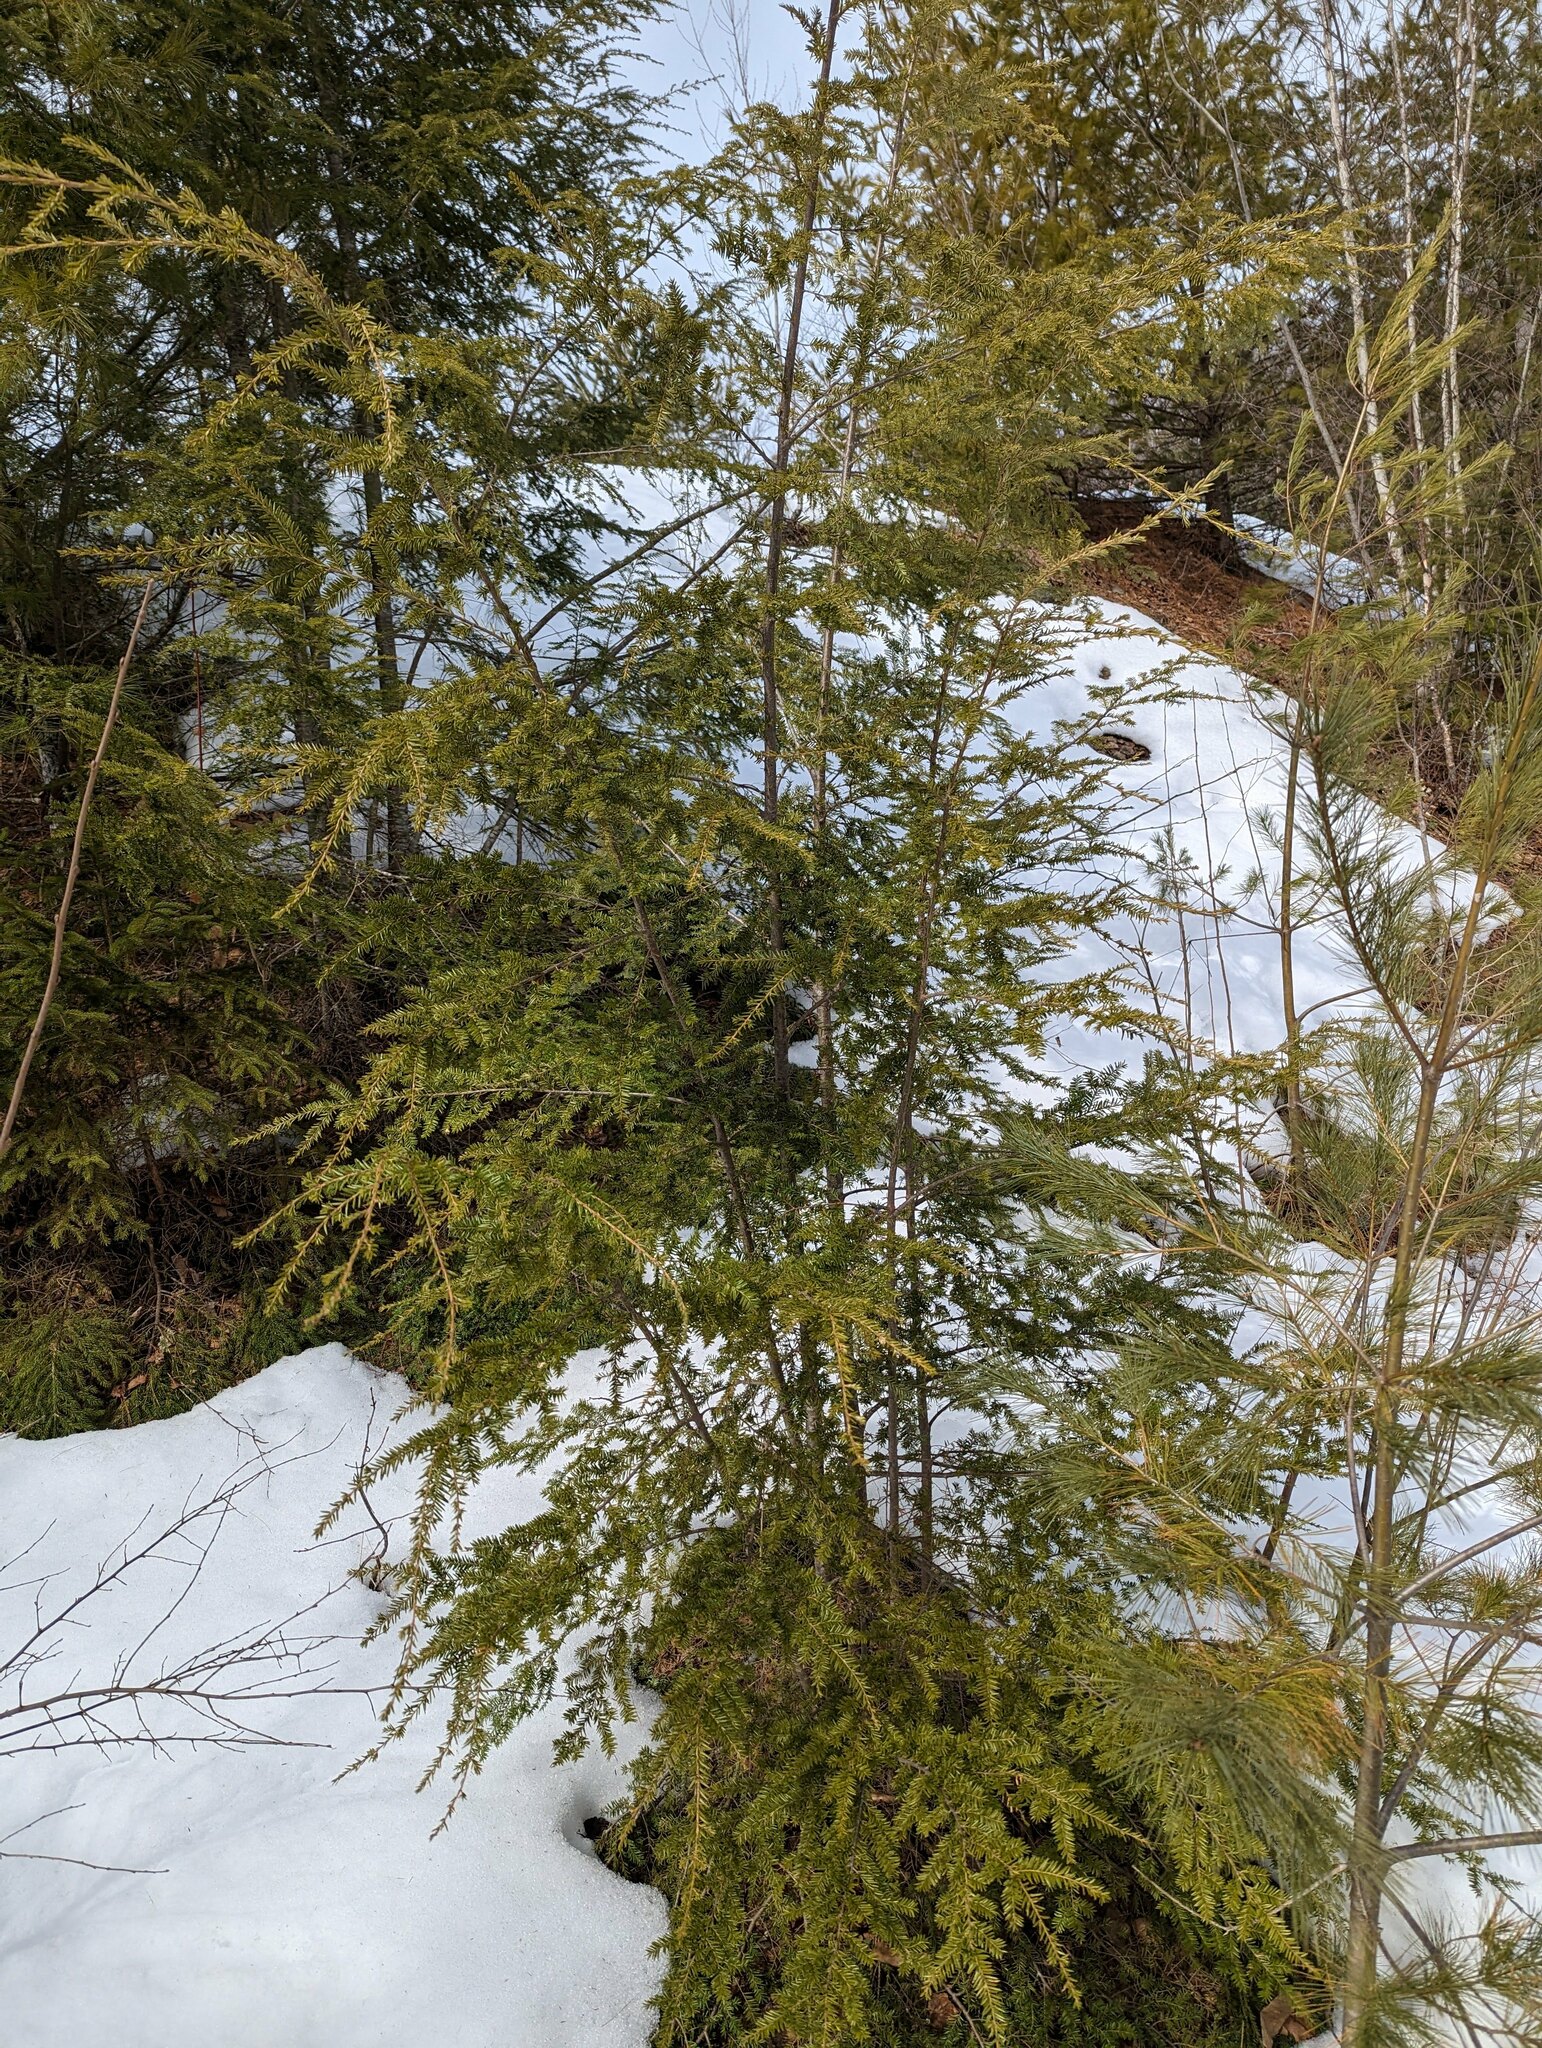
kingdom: Plantae
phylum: Tracheophyta
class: Pinopsida
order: Pinales
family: Pinaceae
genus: Tsuga
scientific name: Tsuga canadensis
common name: Eastern hemlock
